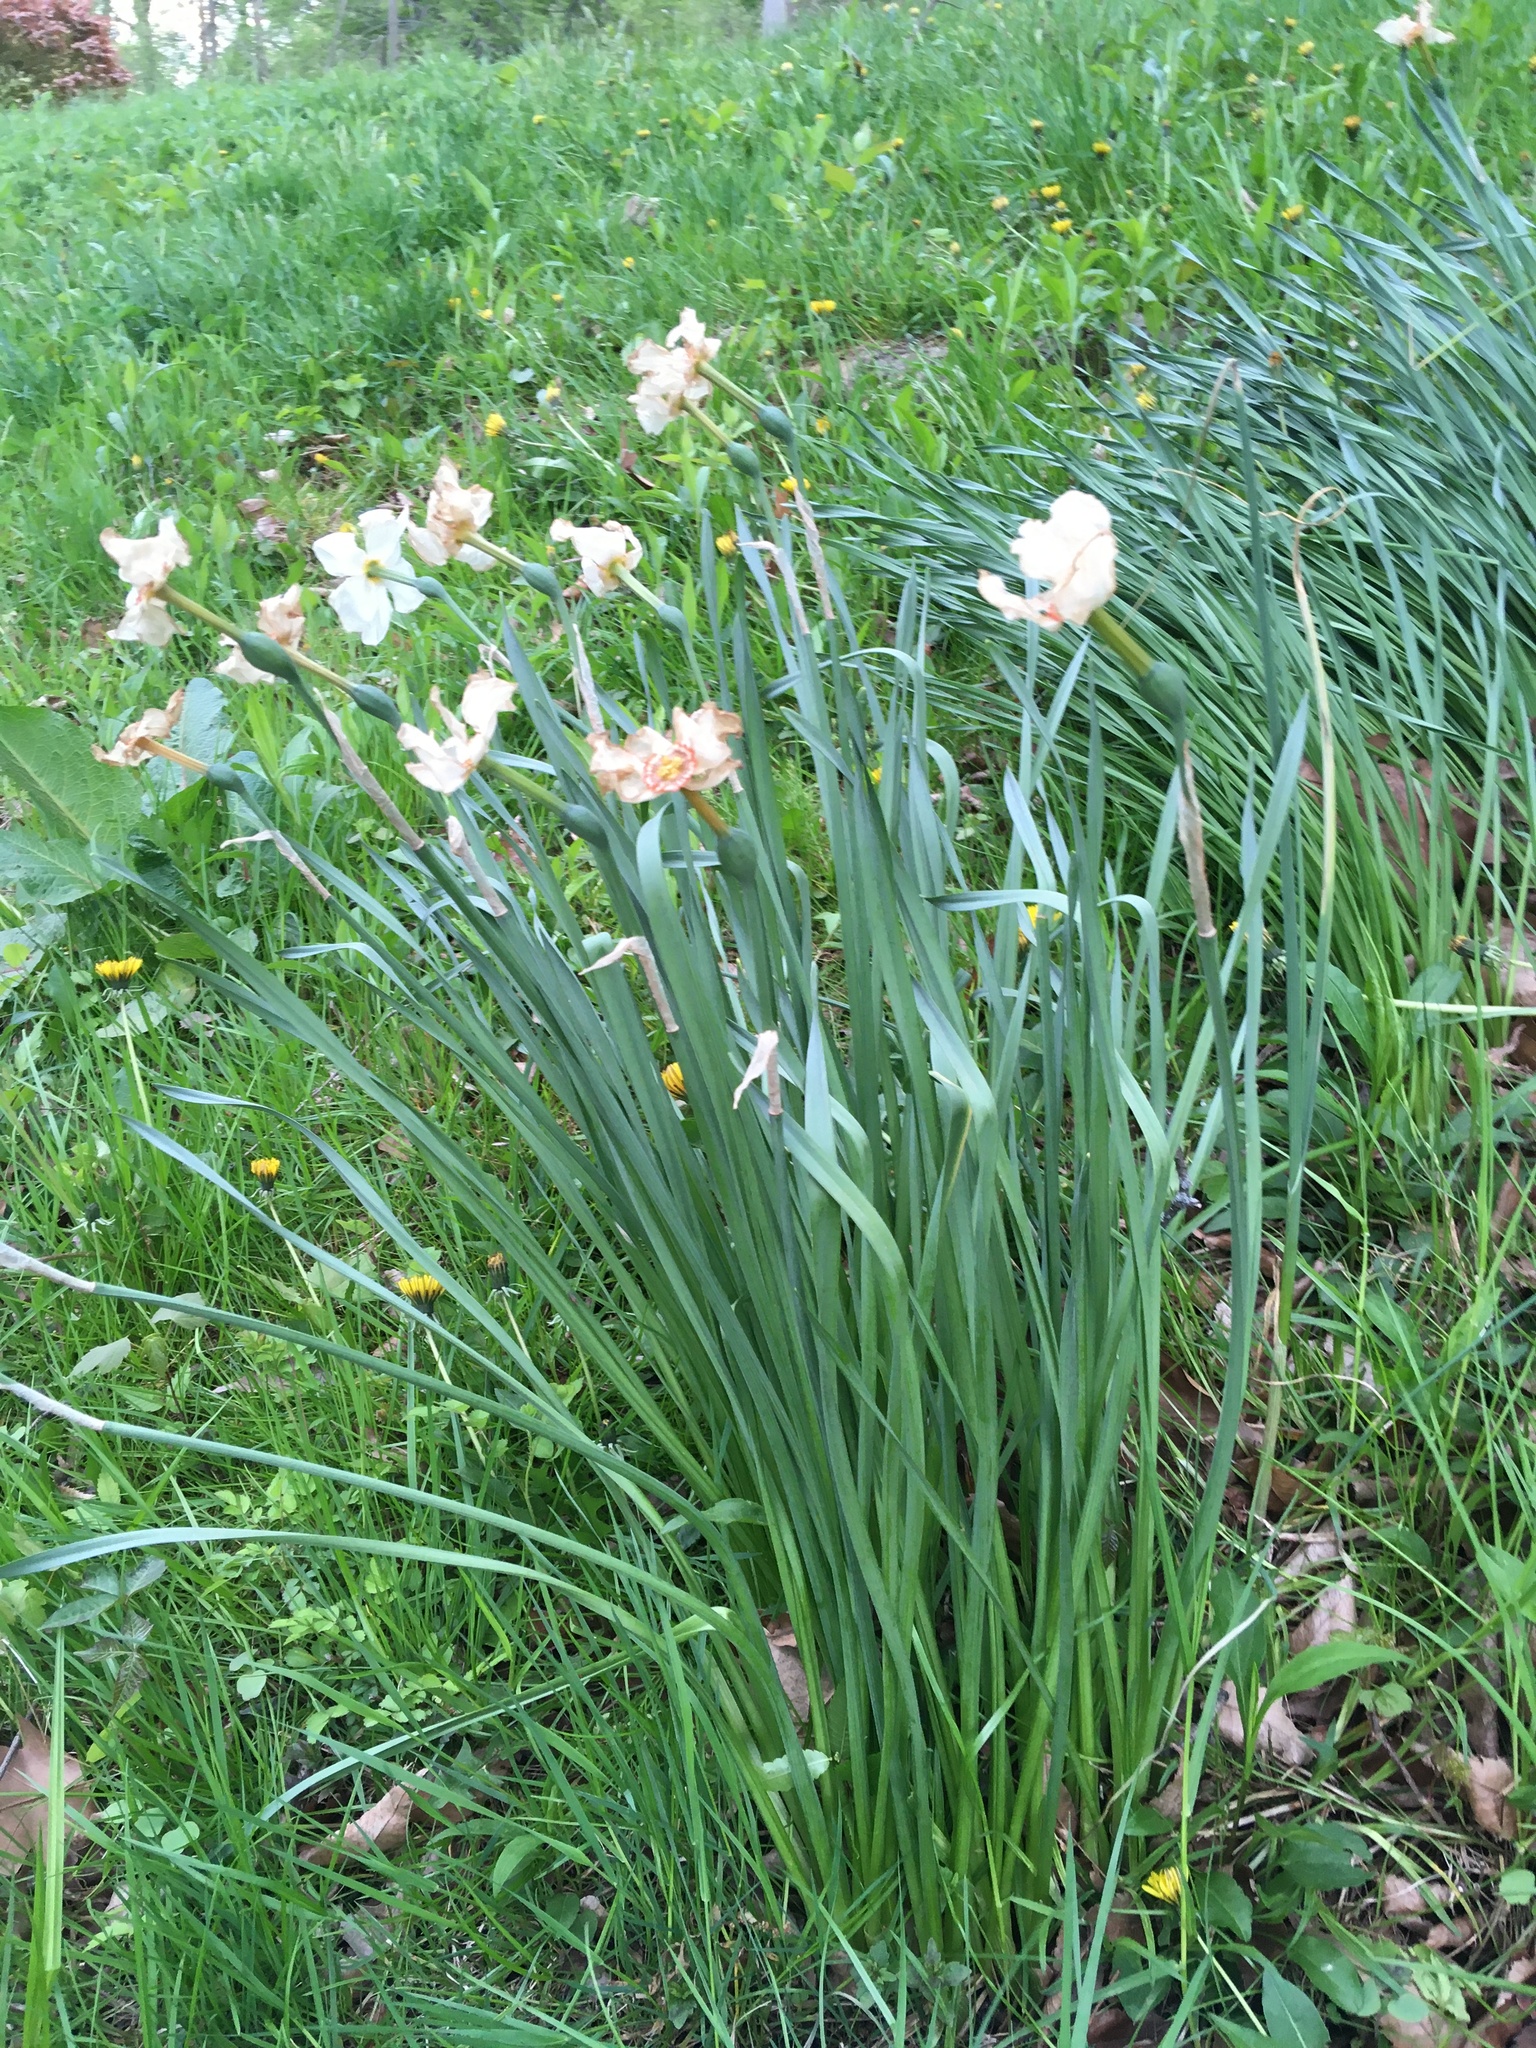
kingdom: Plantae
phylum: Tracheophyta
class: Liliopsida
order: Asparagales
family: Amaryllidaceae
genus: Narcissus
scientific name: Narcissus poeticus
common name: Pheasant's-eye daffodil
